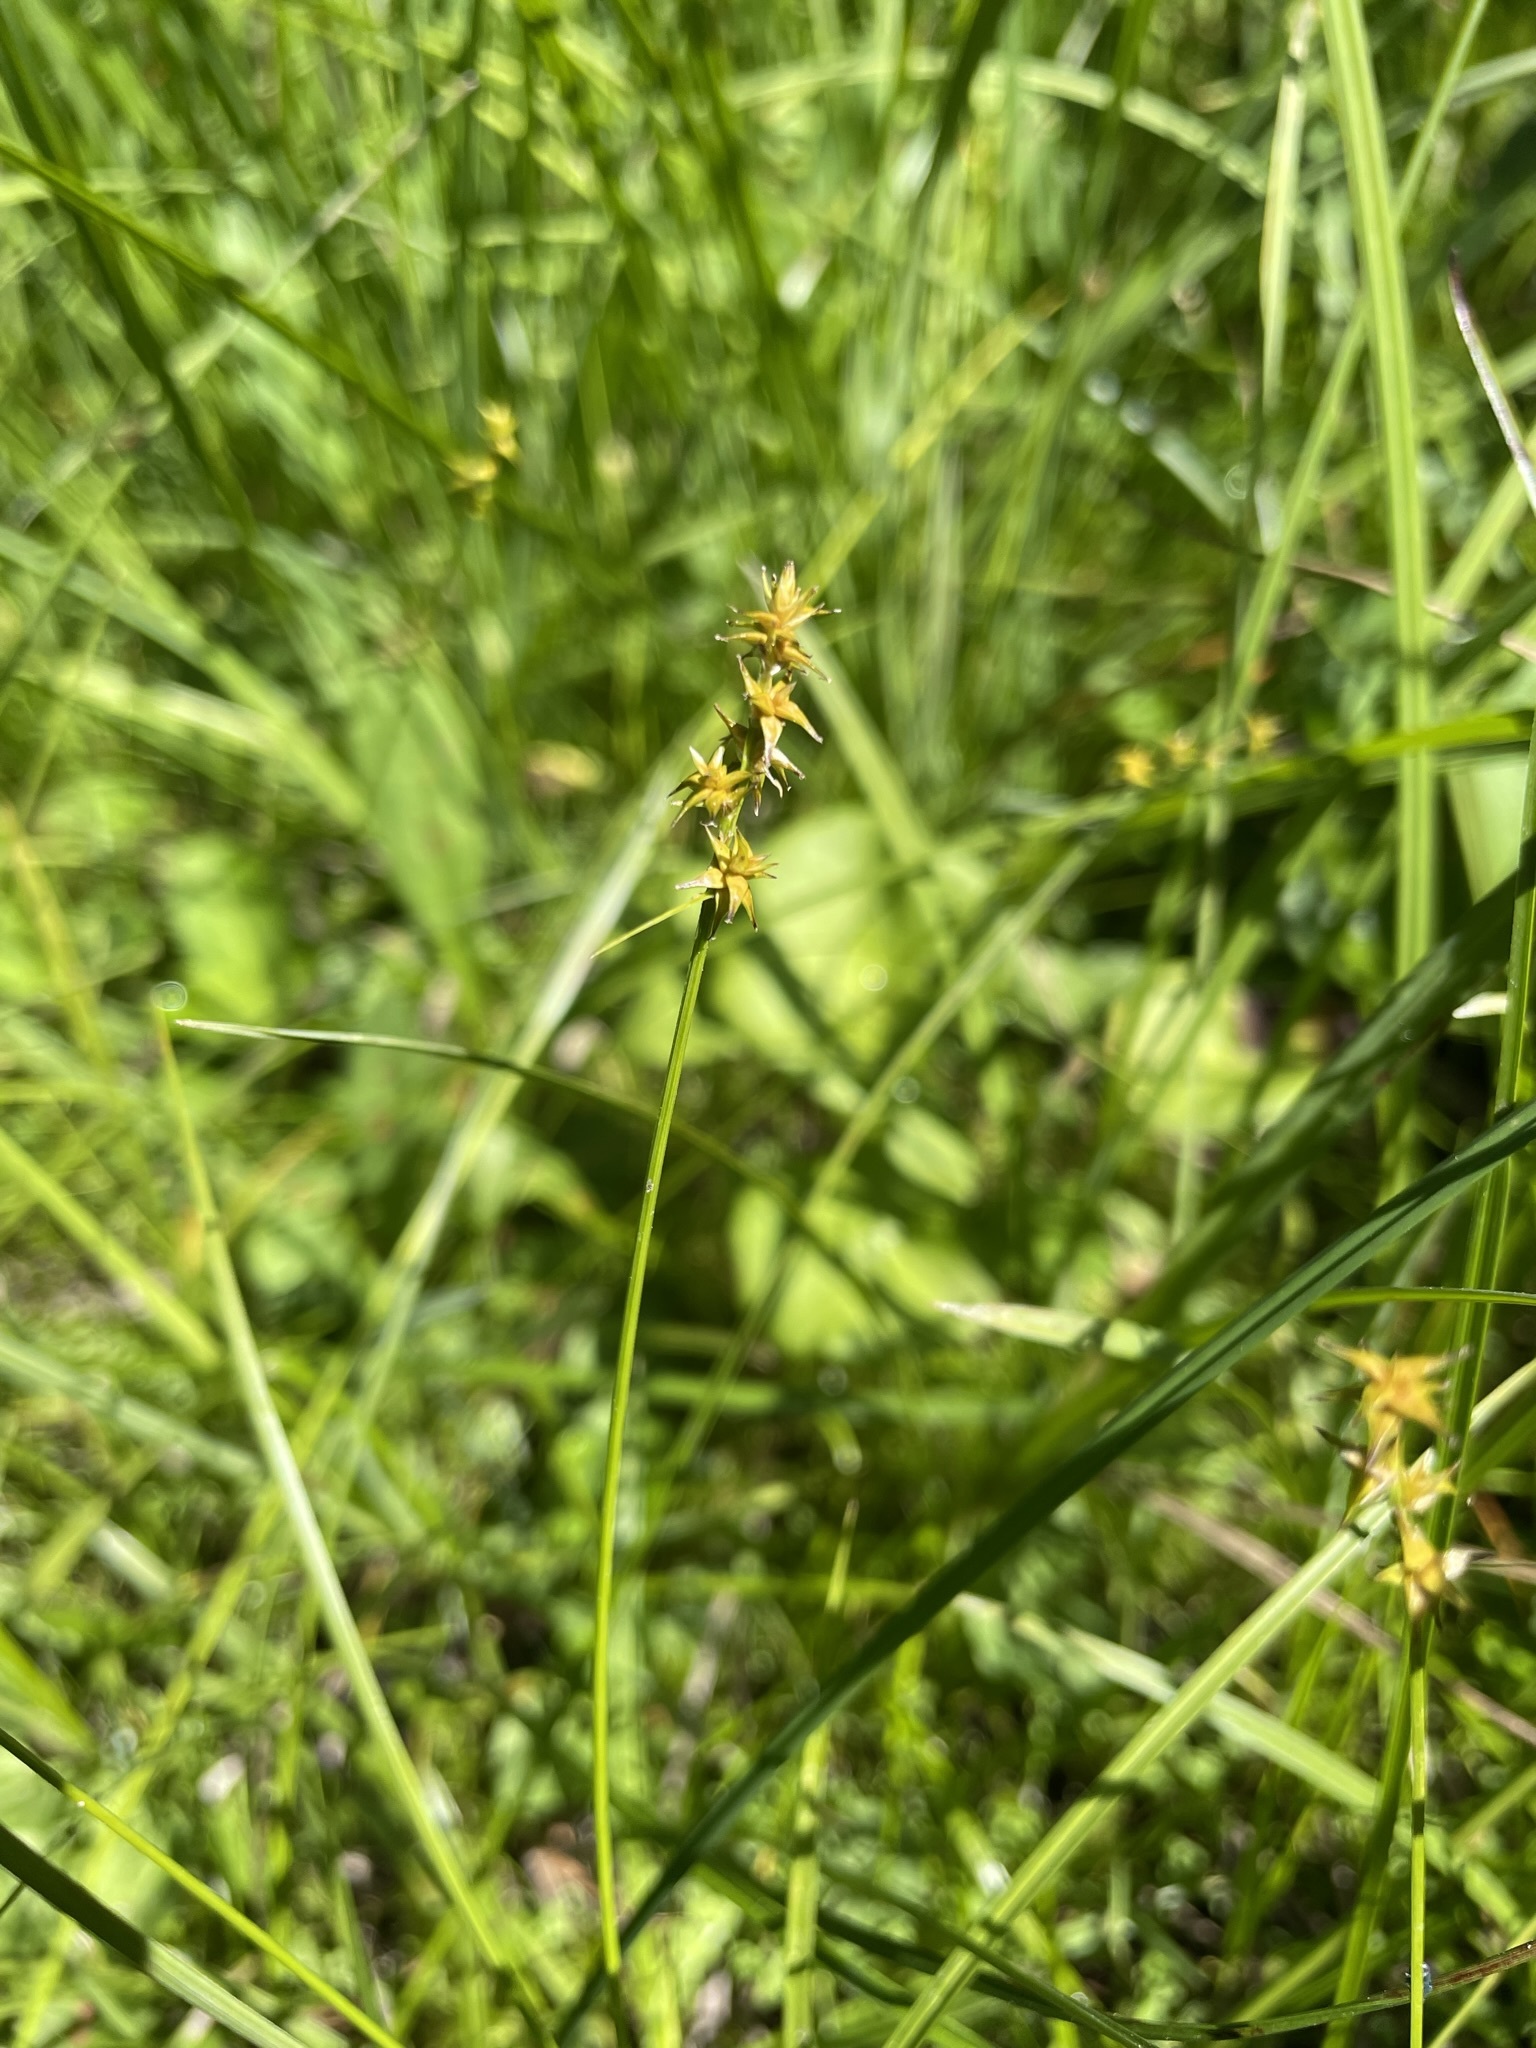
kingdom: Plantae
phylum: Tracheophyta
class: Liliopsida
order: Poales
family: Cyperaceae
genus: Carex
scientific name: Carex echinata
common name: Star sedge
